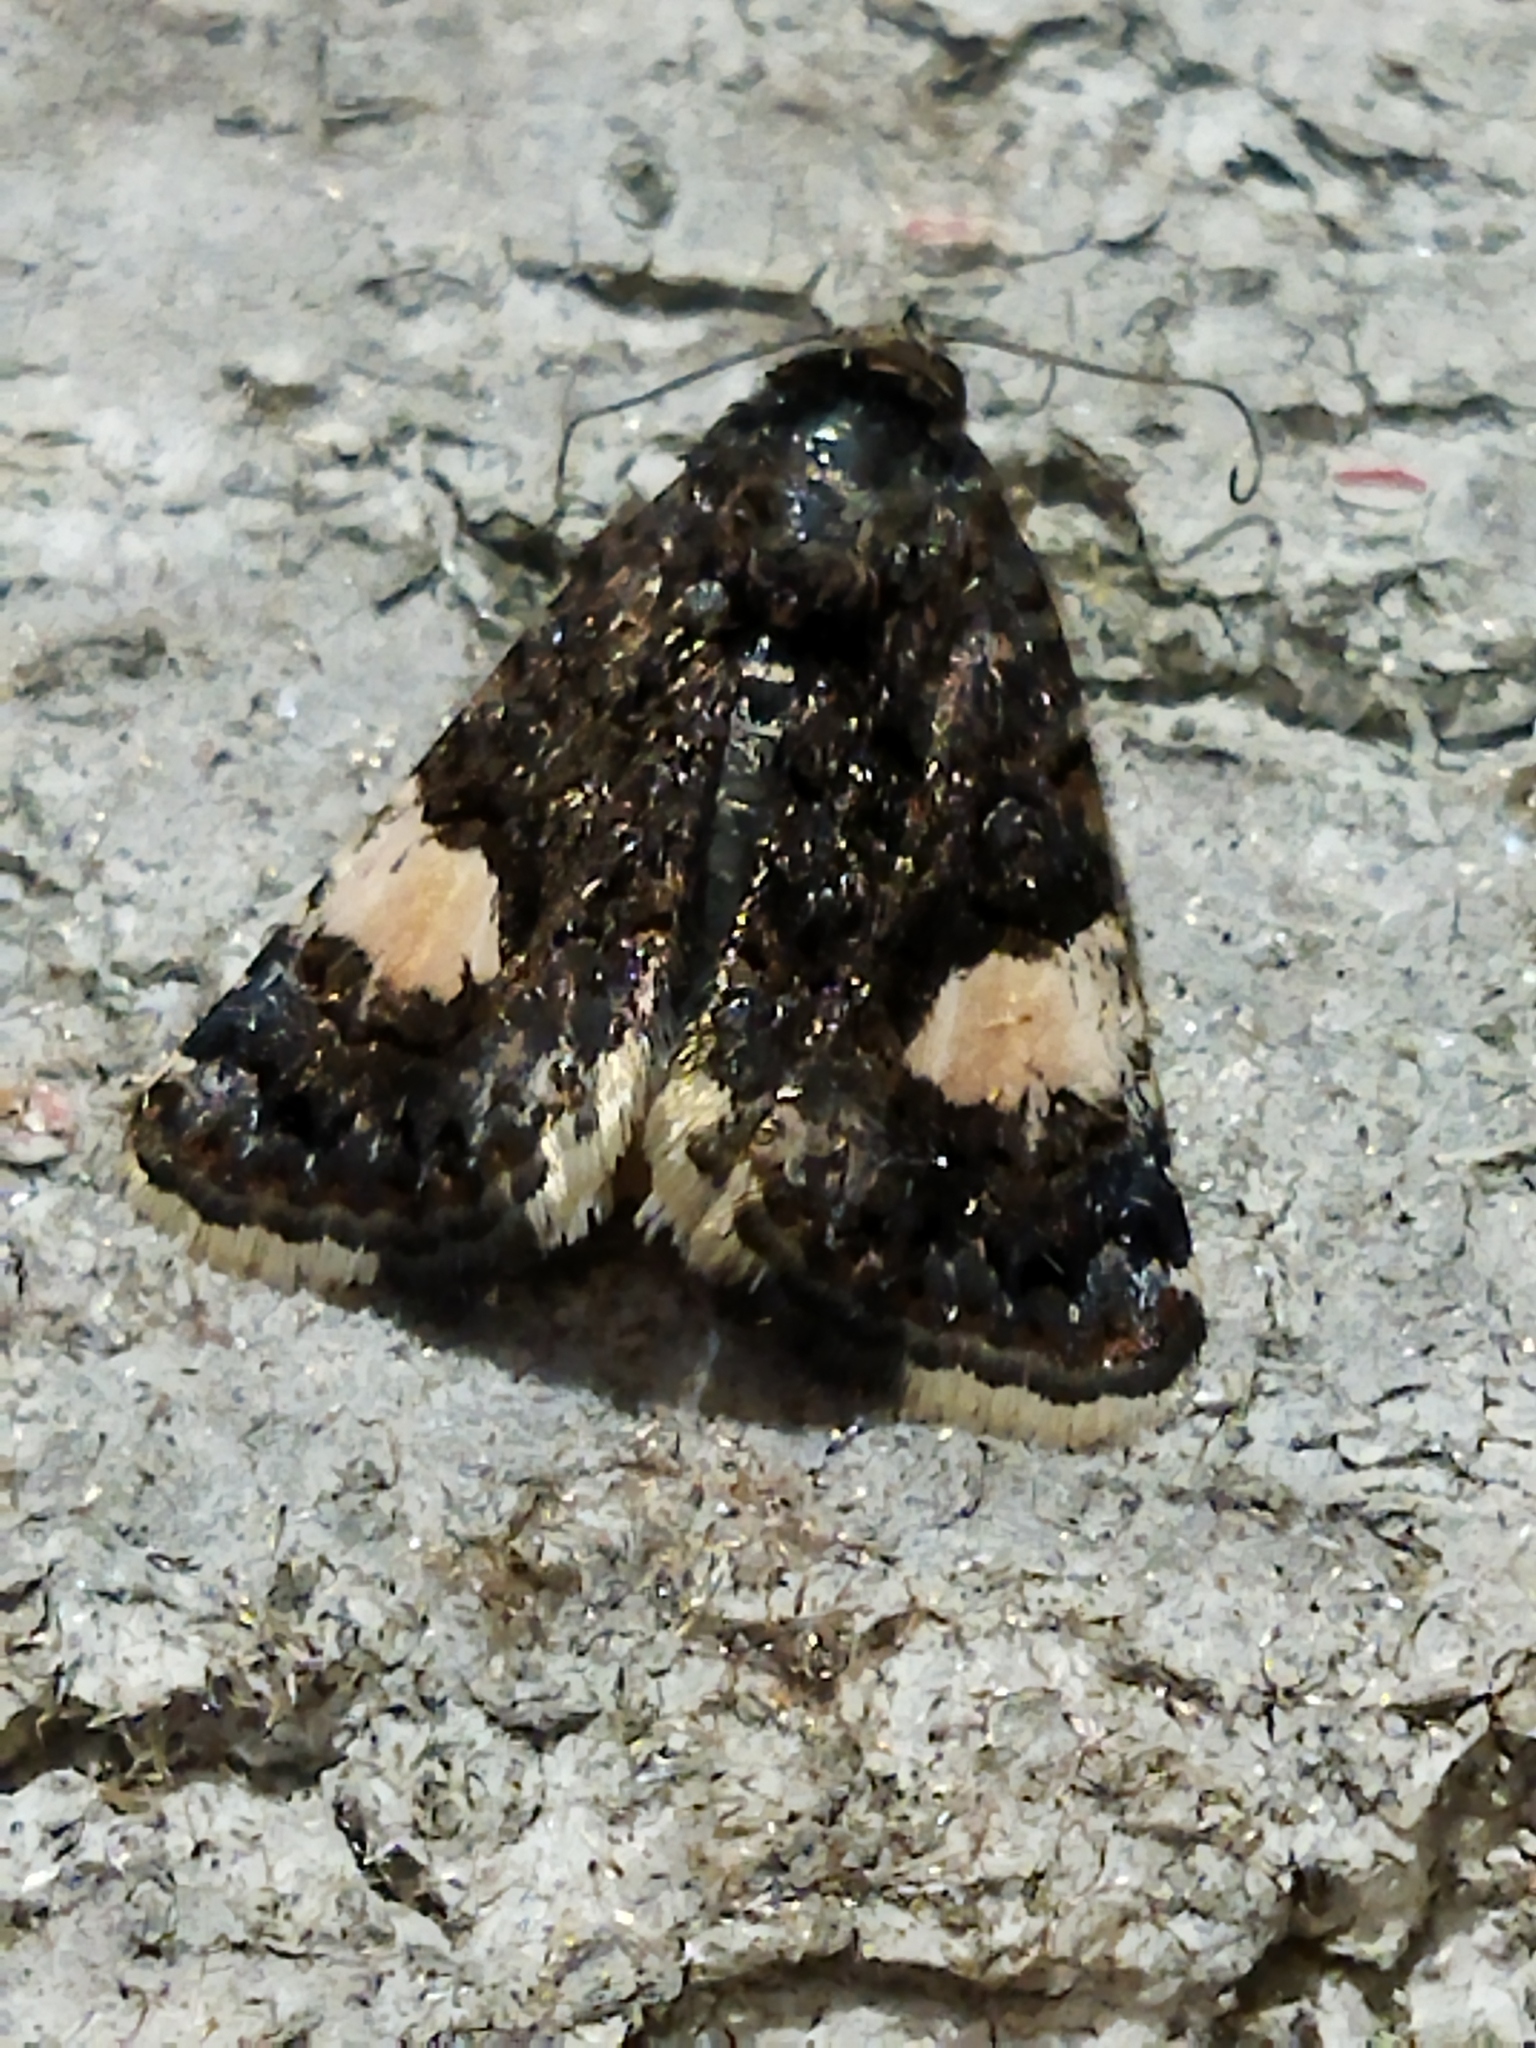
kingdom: Animalia
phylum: Arthropoda
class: Insecta
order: Lepidoptera
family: Erebidae
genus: Tyta
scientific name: Tyta luctuosa
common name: Four-spotted
